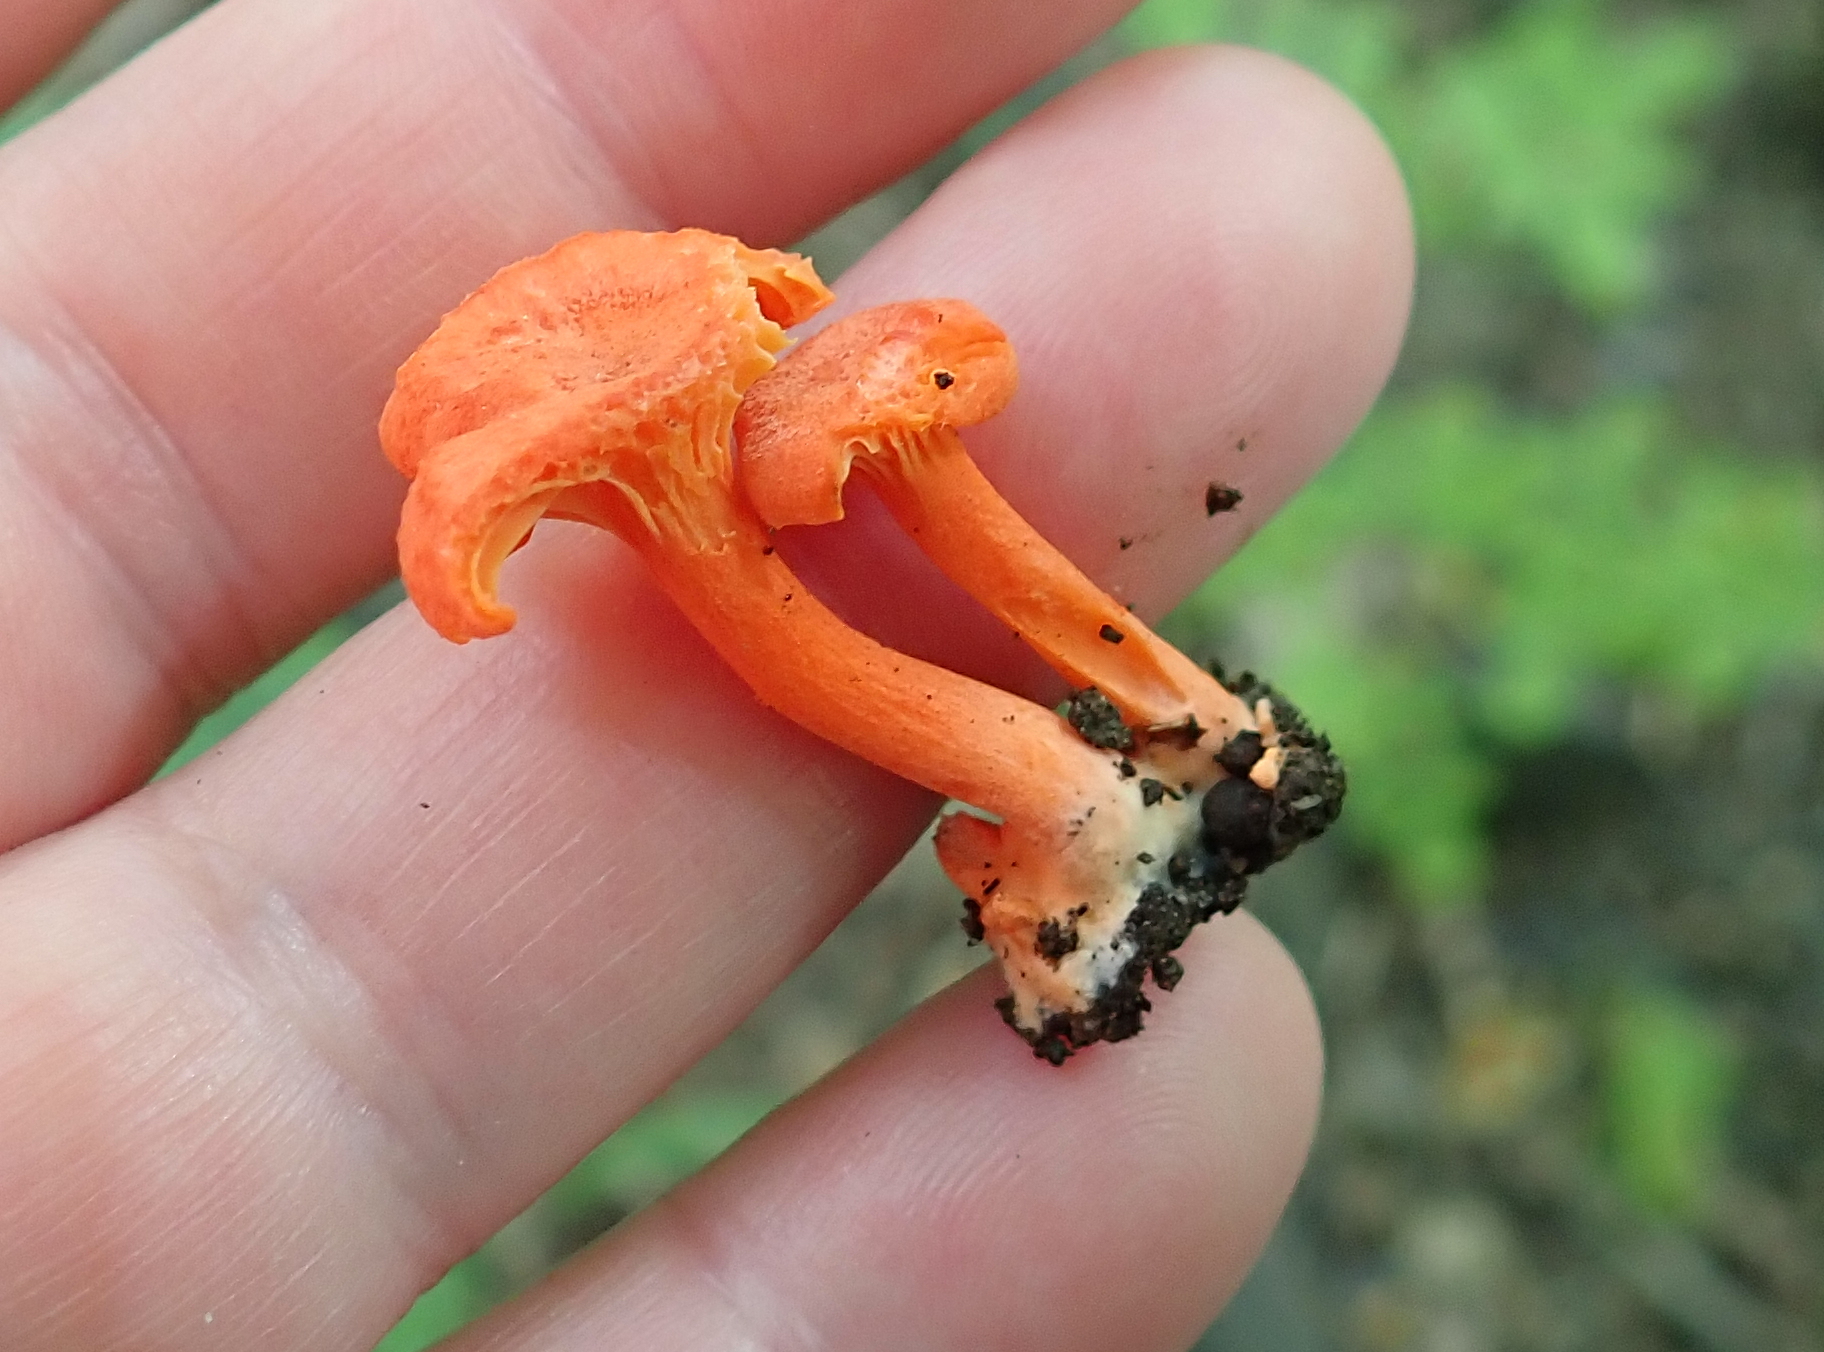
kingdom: Fungi
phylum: Basidiomycota
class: Agaricomycetes
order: Cantharellales
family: Hydnaceae
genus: Cantharellus
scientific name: Cantharellus cinnabarinus
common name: Cinnabar chanterelle
